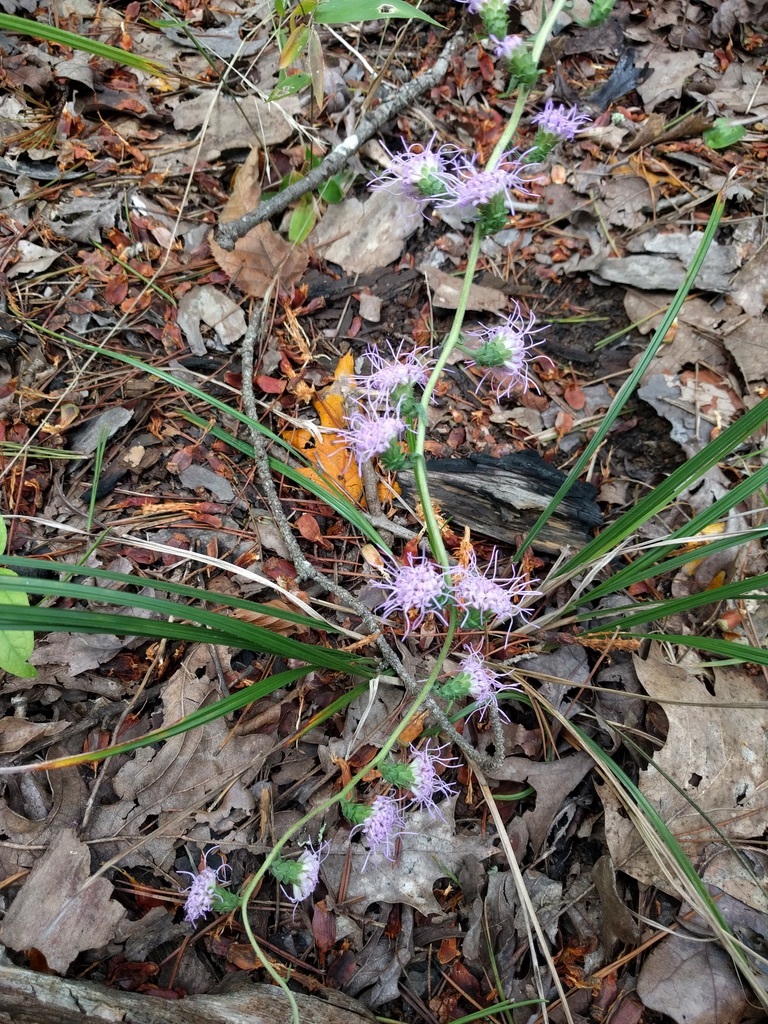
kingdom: Plantae
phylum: Tracheophyta
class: Magnoliopsida
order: Asterales
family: Asteraceae
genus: Liatris
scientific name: Liatris squarrulosa
